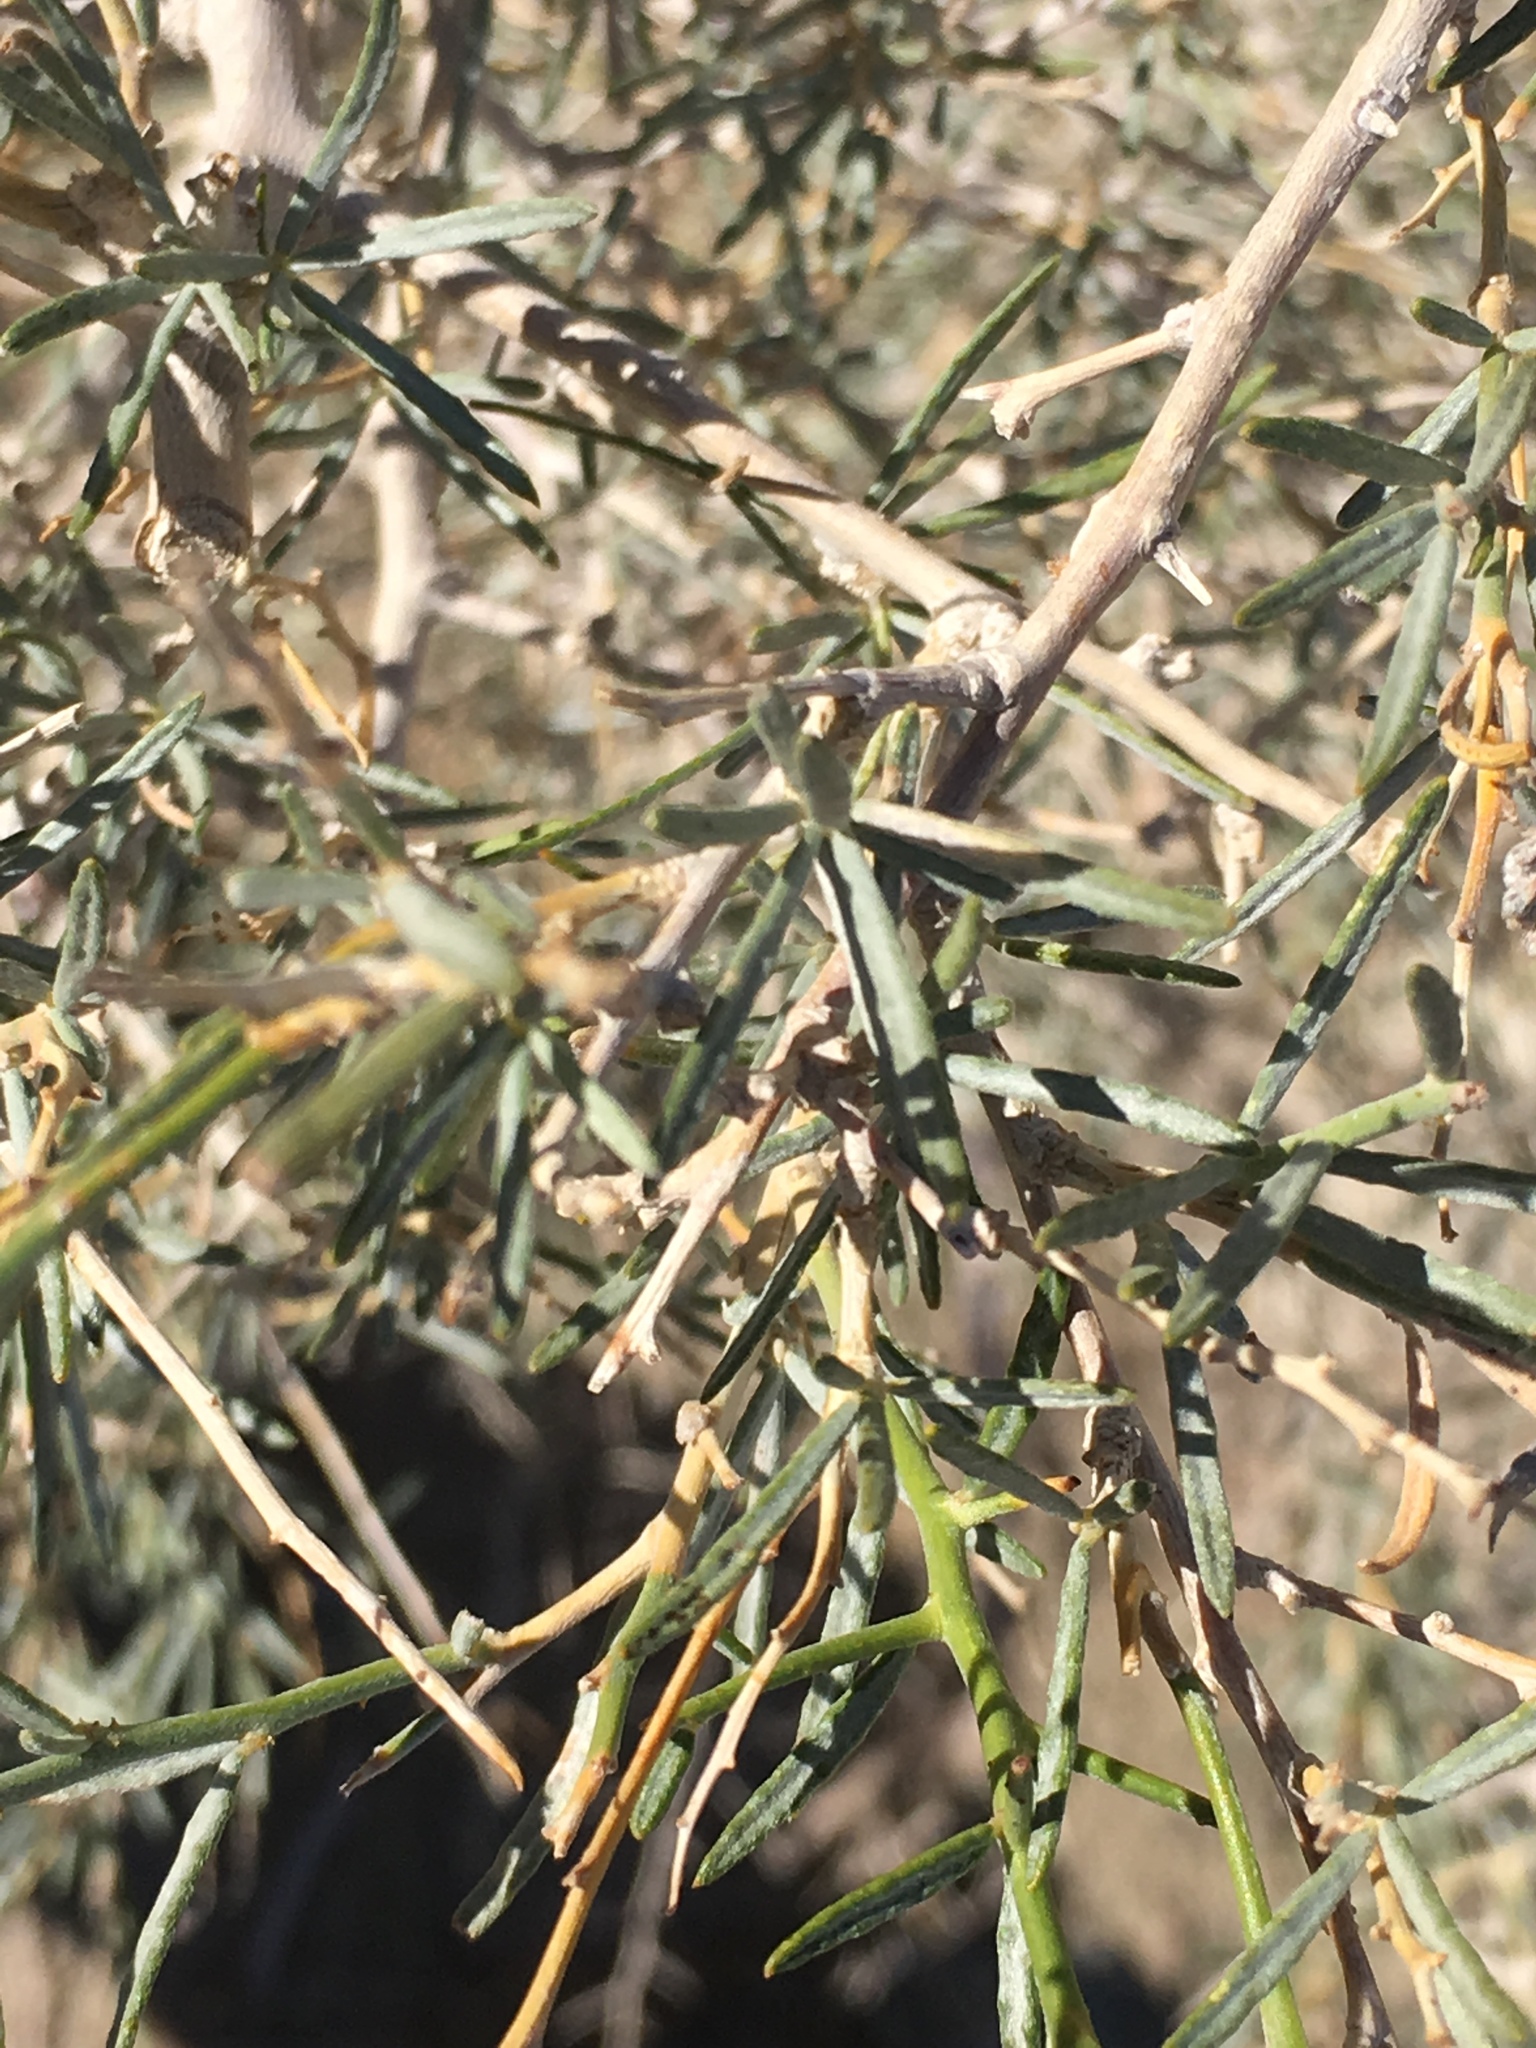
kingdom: Plantae
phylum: Tracheophyta
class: Magnoliopsida
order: Fabales
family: Fabaceae
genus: Psorothamnus
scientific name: Psorothamnus schottii
